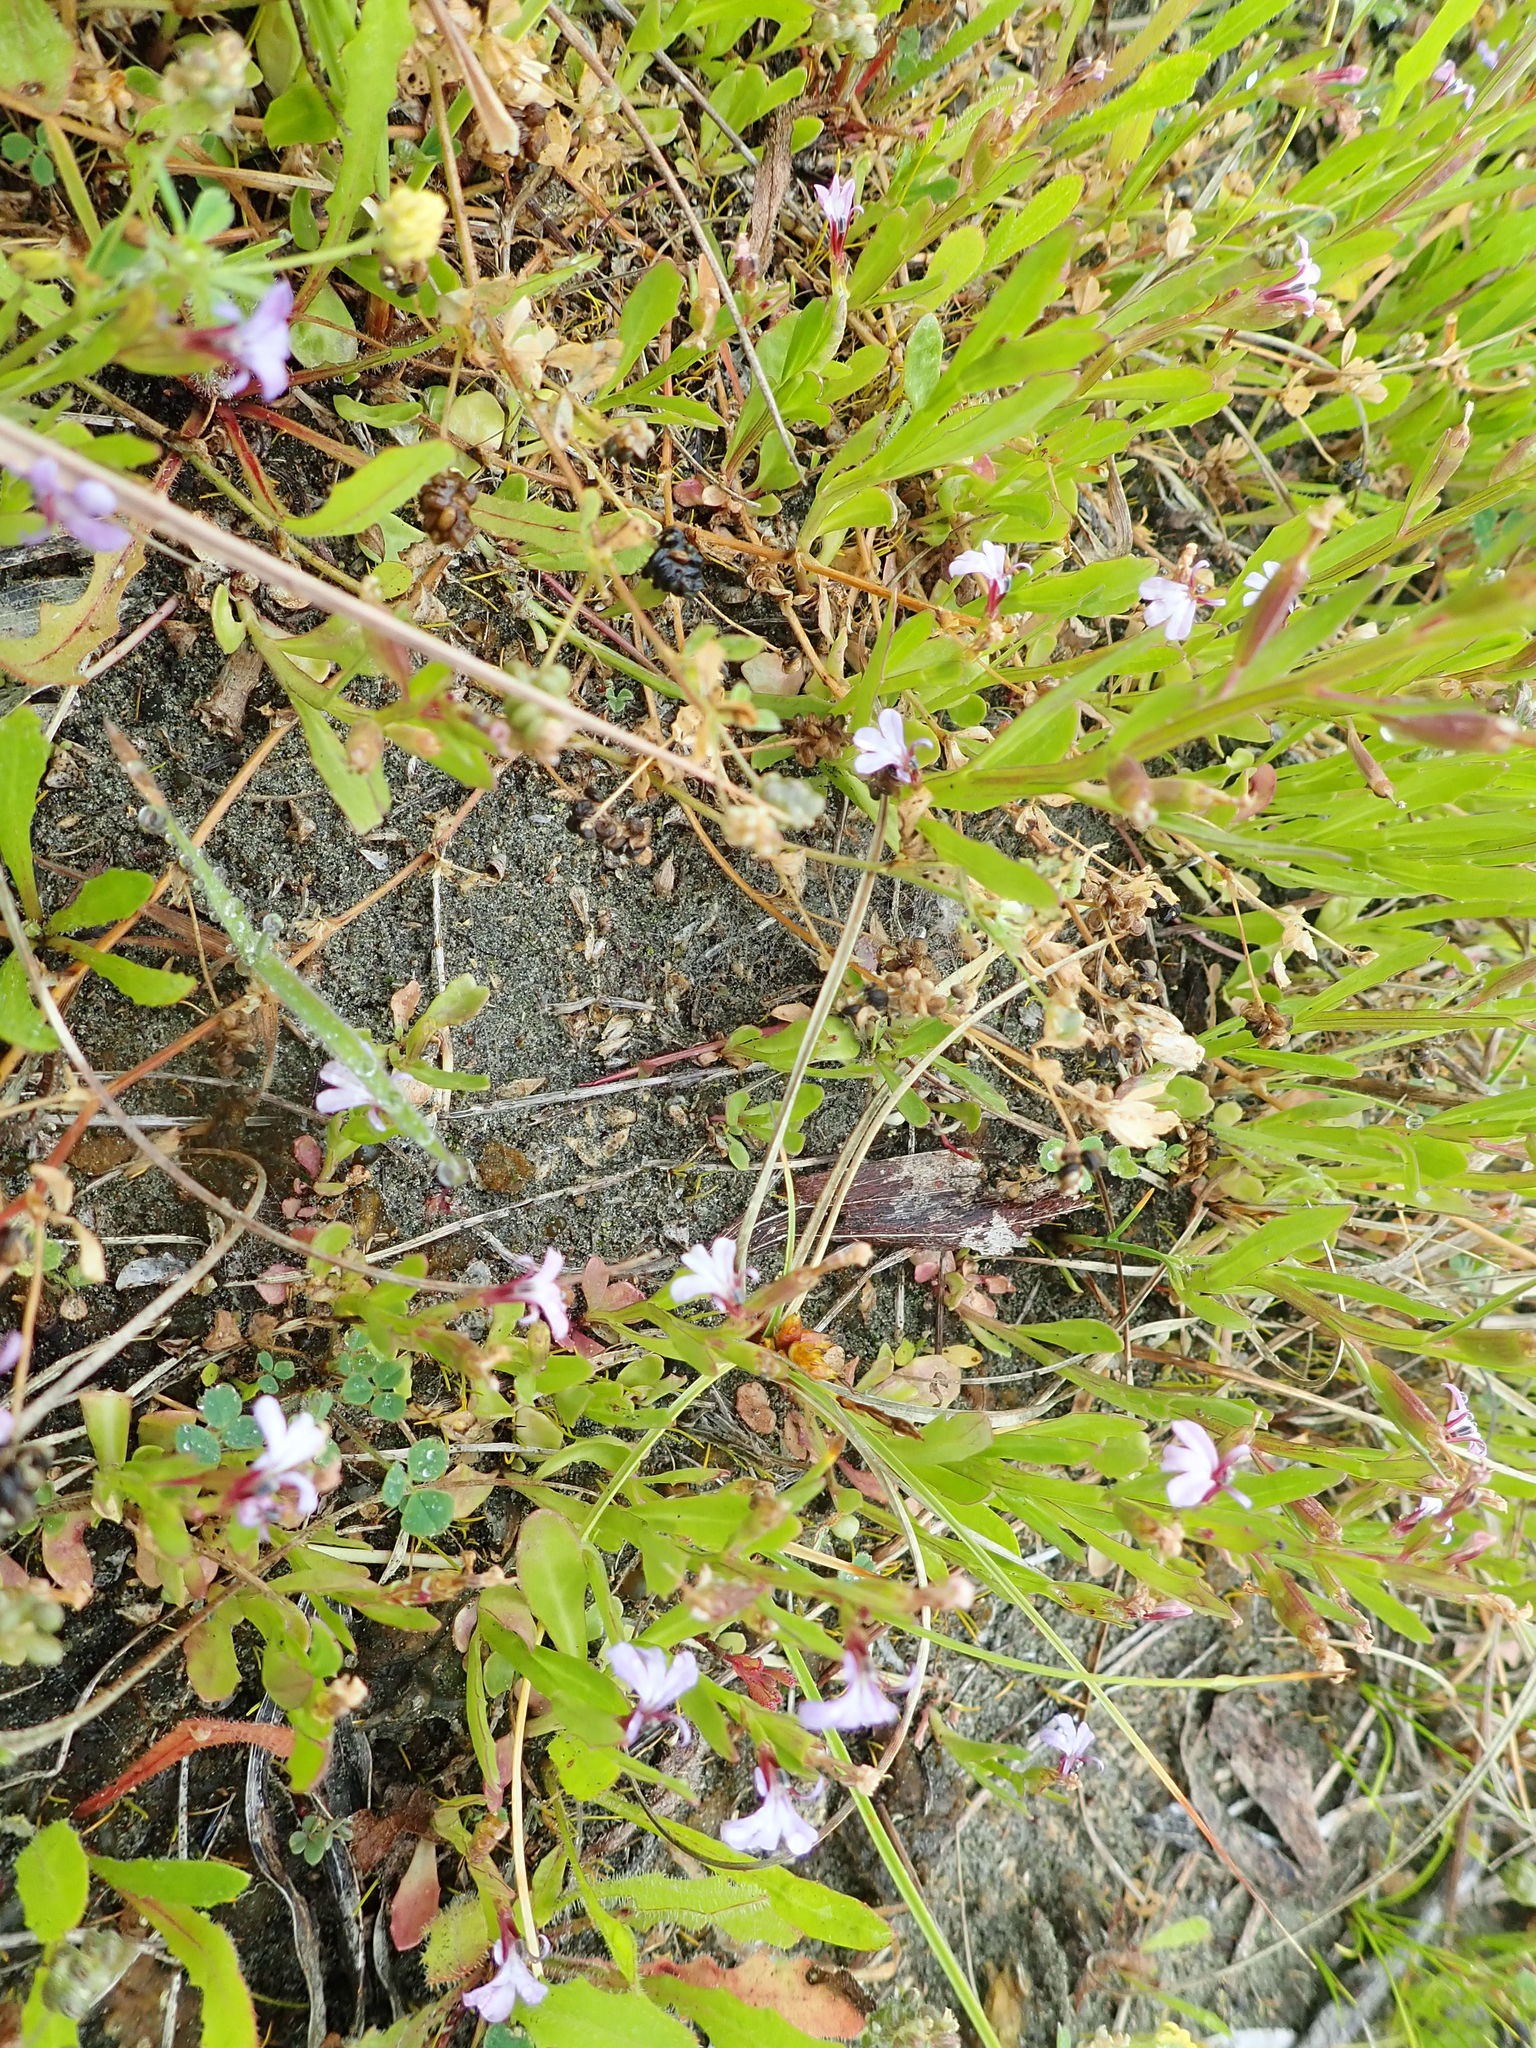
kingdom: Plantae
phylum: Tracheophyta
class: Magnoliopsida
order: Asterales
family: Campanulaceae
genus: Lobelia
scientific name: Lobelia anceps
